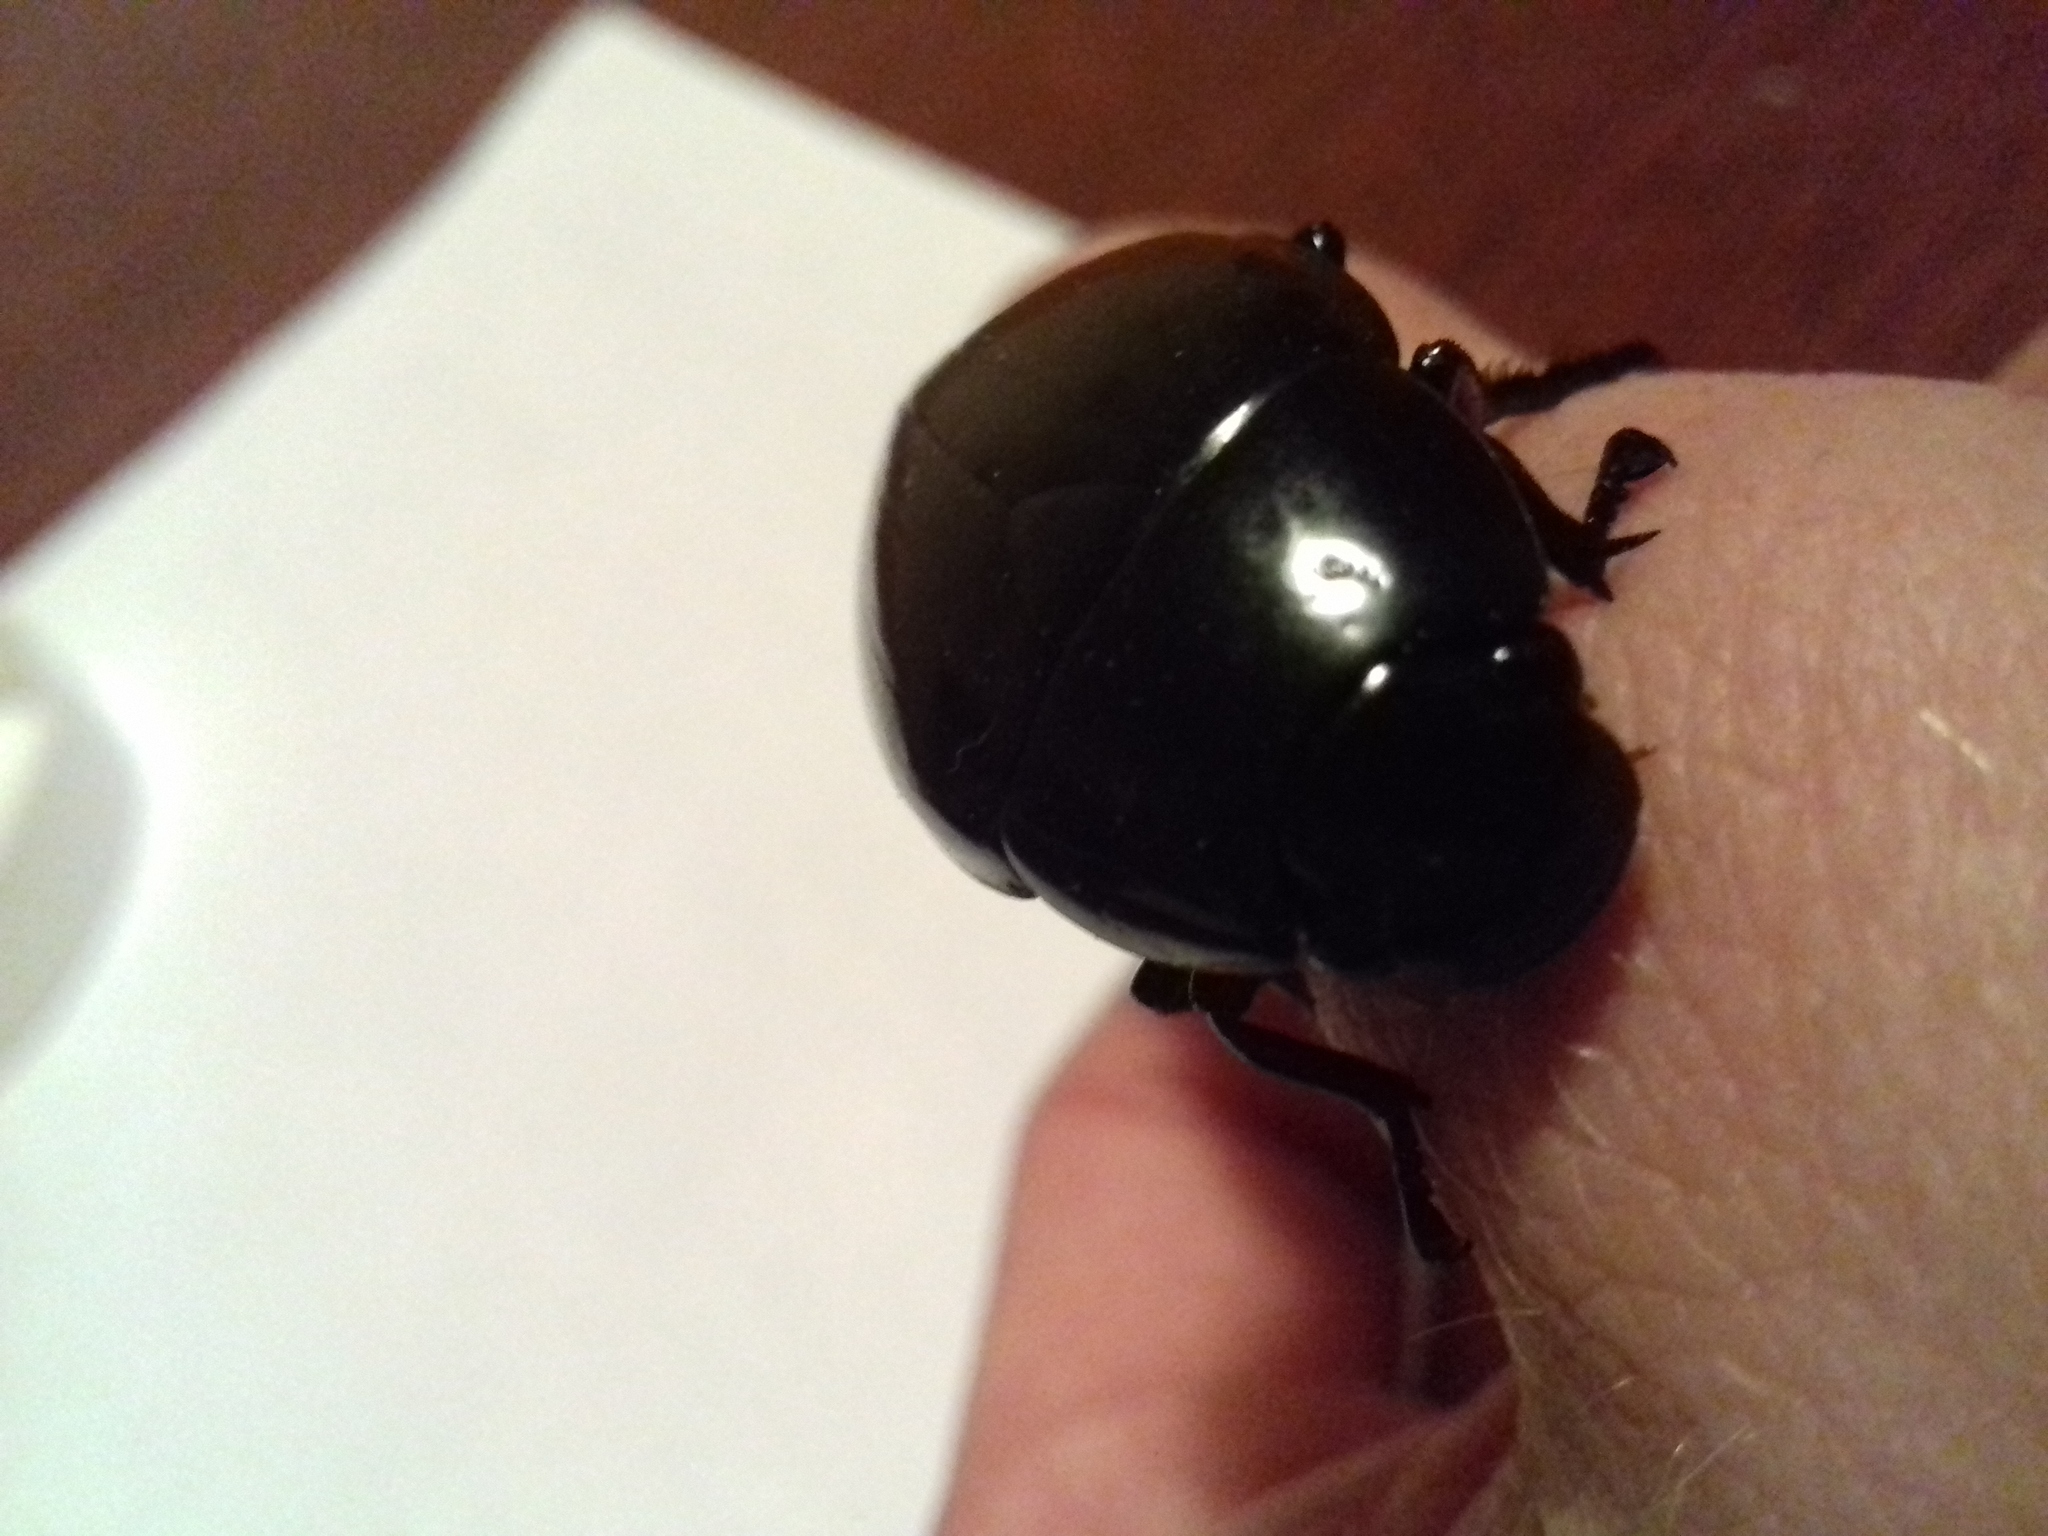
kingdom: Animalia
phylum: Arthropoda
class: Insecta
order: Coleoptera
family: Hydrophilidae
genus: Hydrophilus
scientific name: Hydrophilus aterrimus
